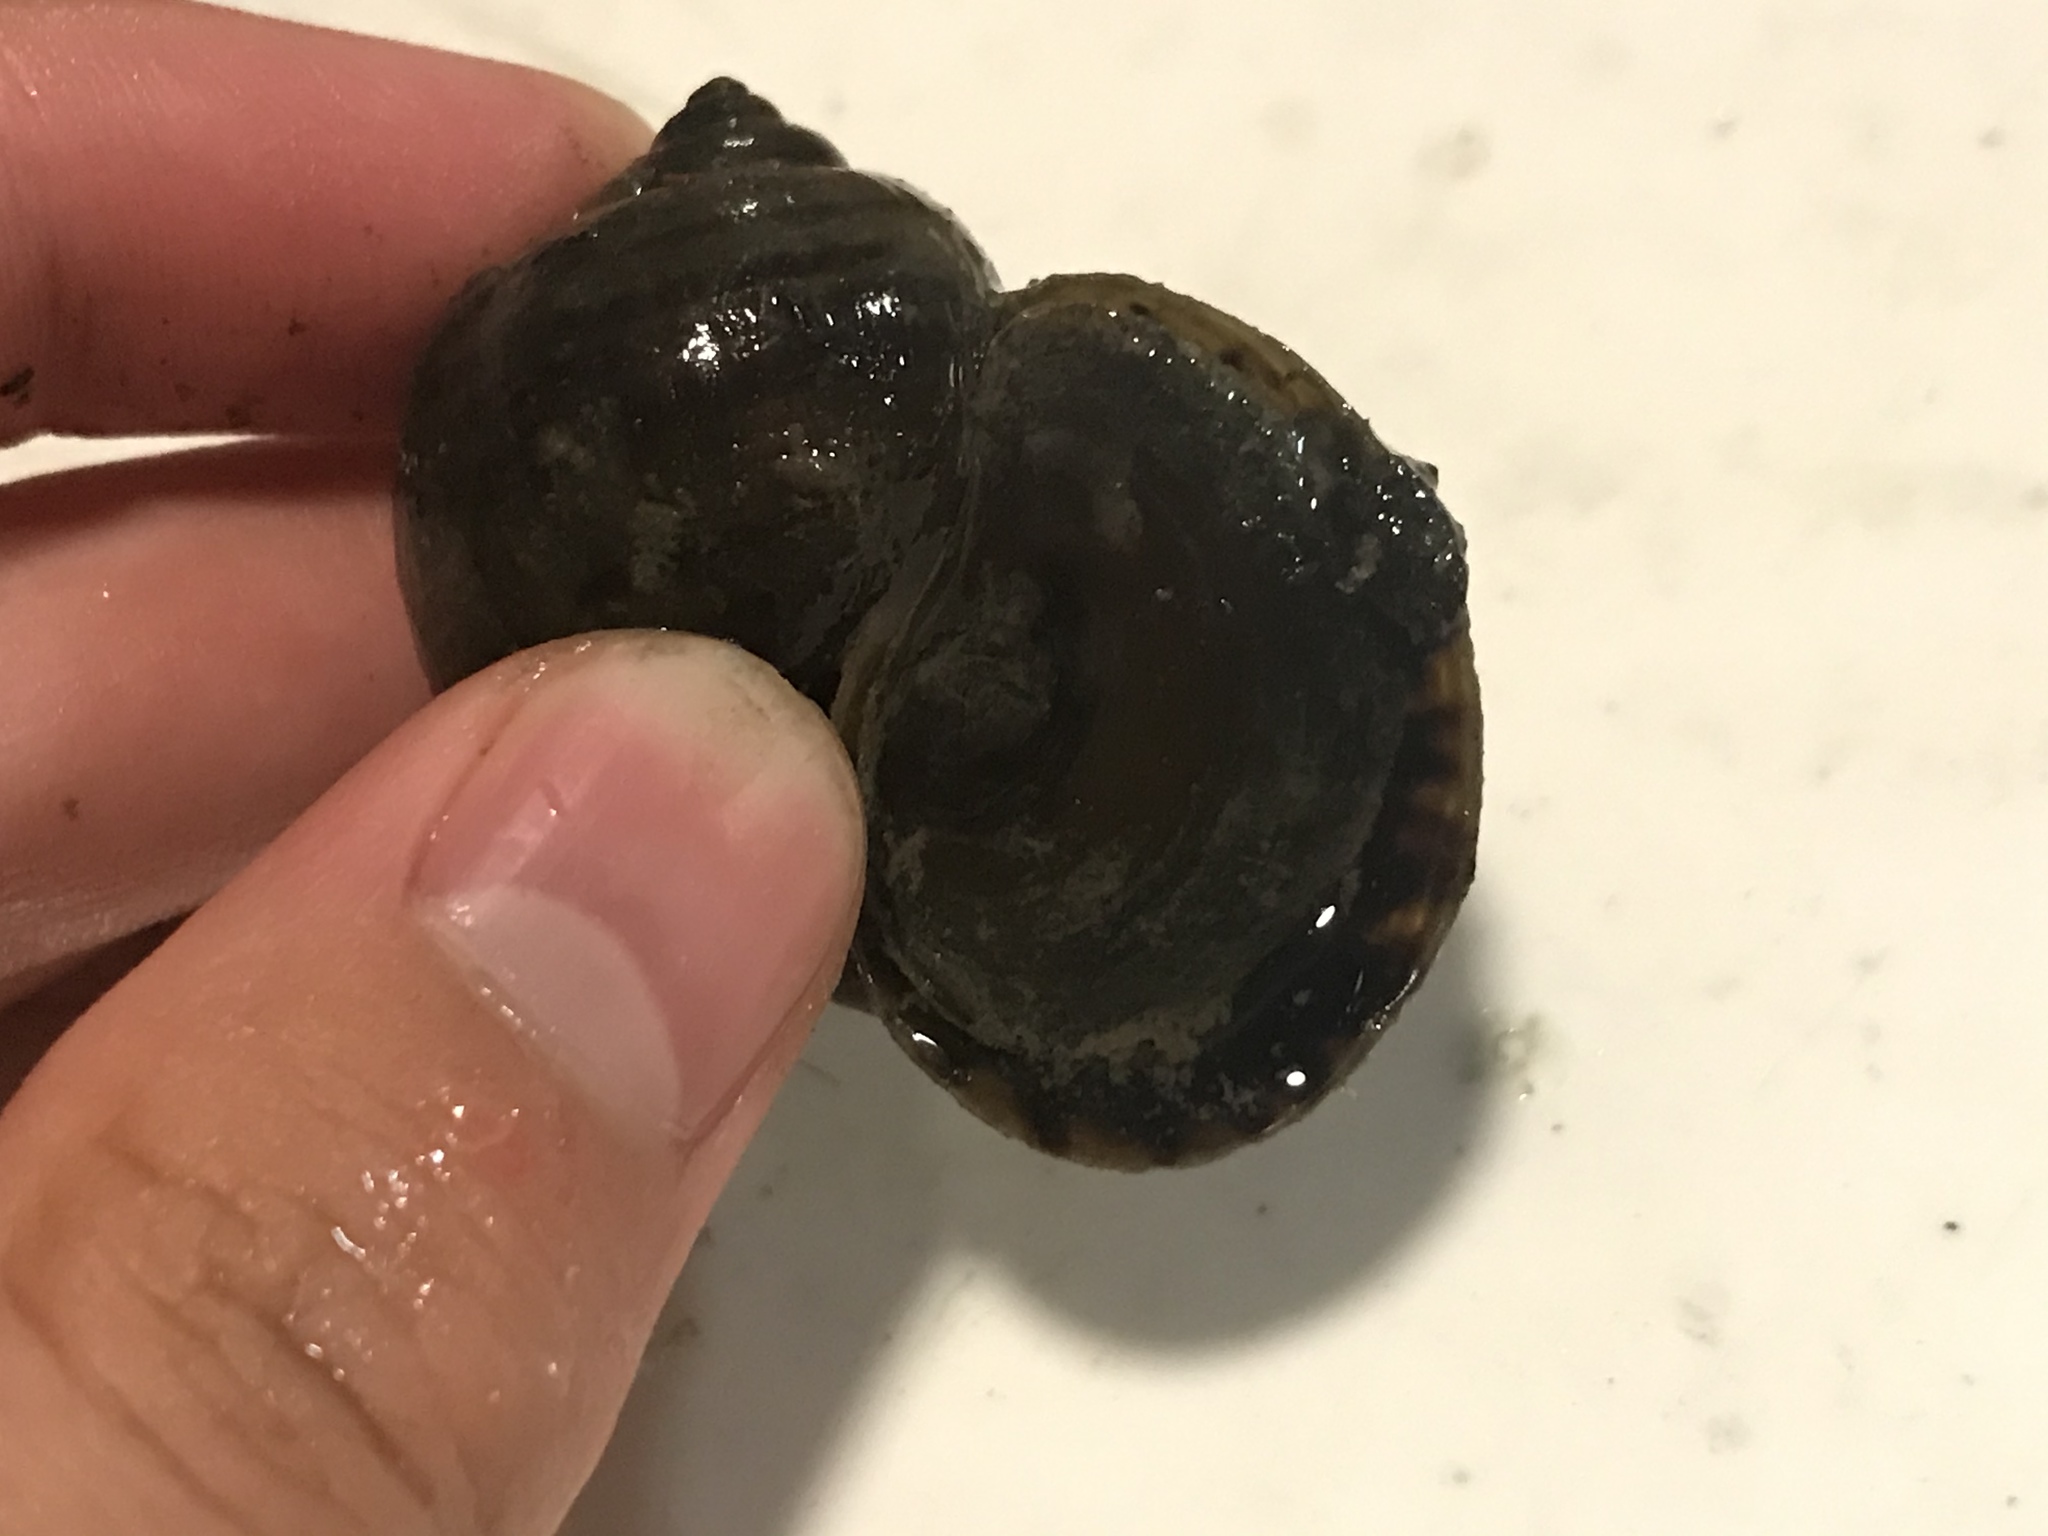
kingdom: Animalia
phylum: Mollusca
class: Gastropoda
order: Architaenioglossa
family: Ampullariidae
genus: Pomacea
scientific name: Pomacea canaliculata
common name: Channeled applesnail
